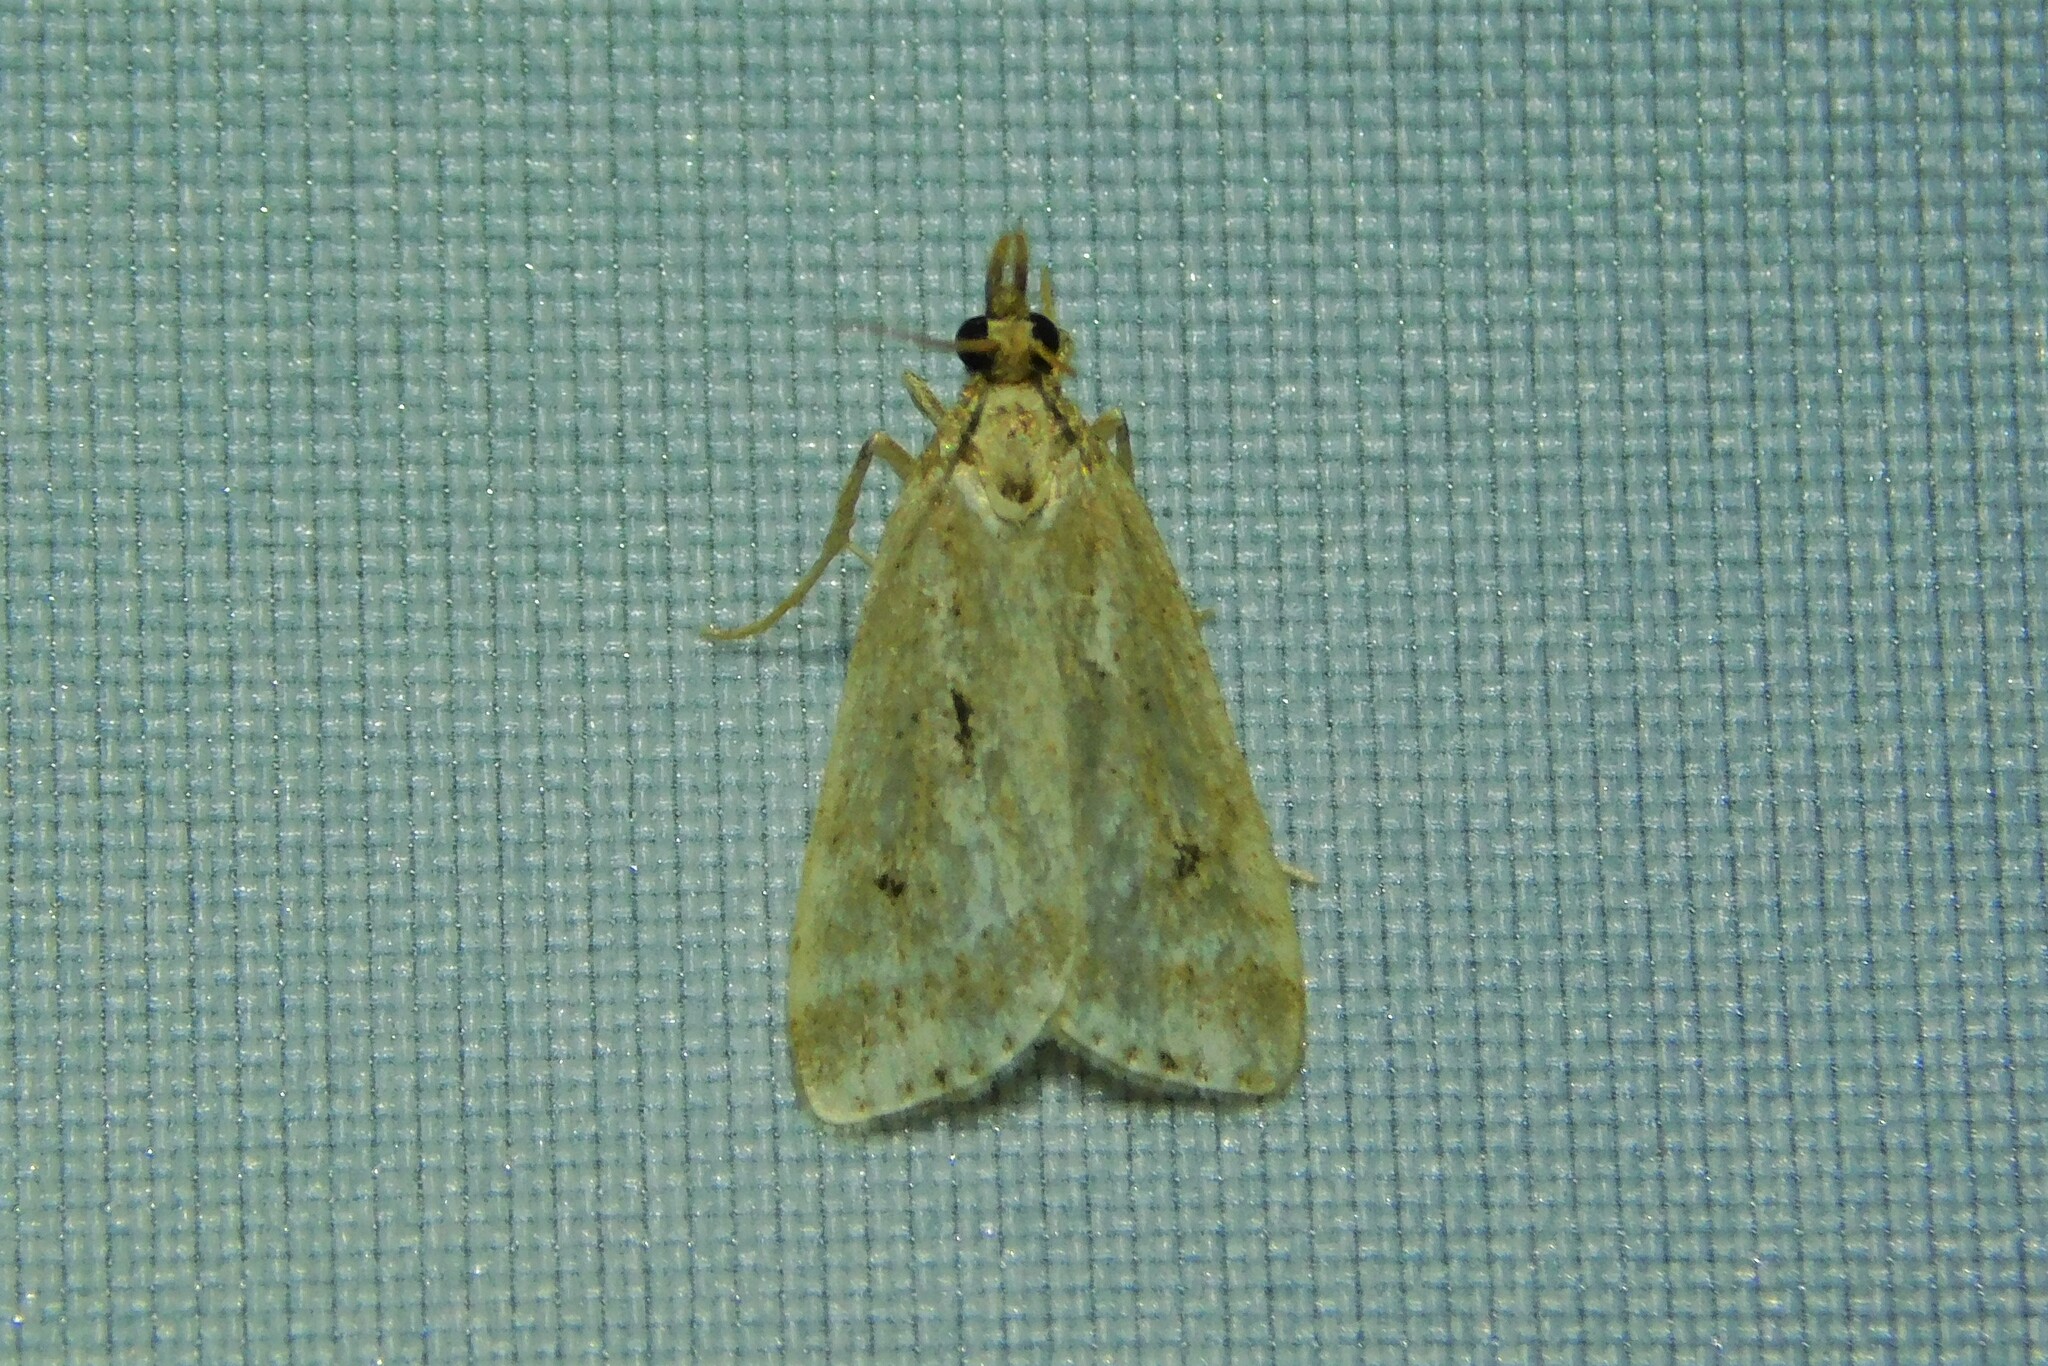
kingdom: Animalia
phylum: Arthropoda
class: Insecta
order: Lepidoptera
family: Crambidae
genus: Eudonia
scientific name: Eudonia truncicolella
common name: Ground-moss grey
